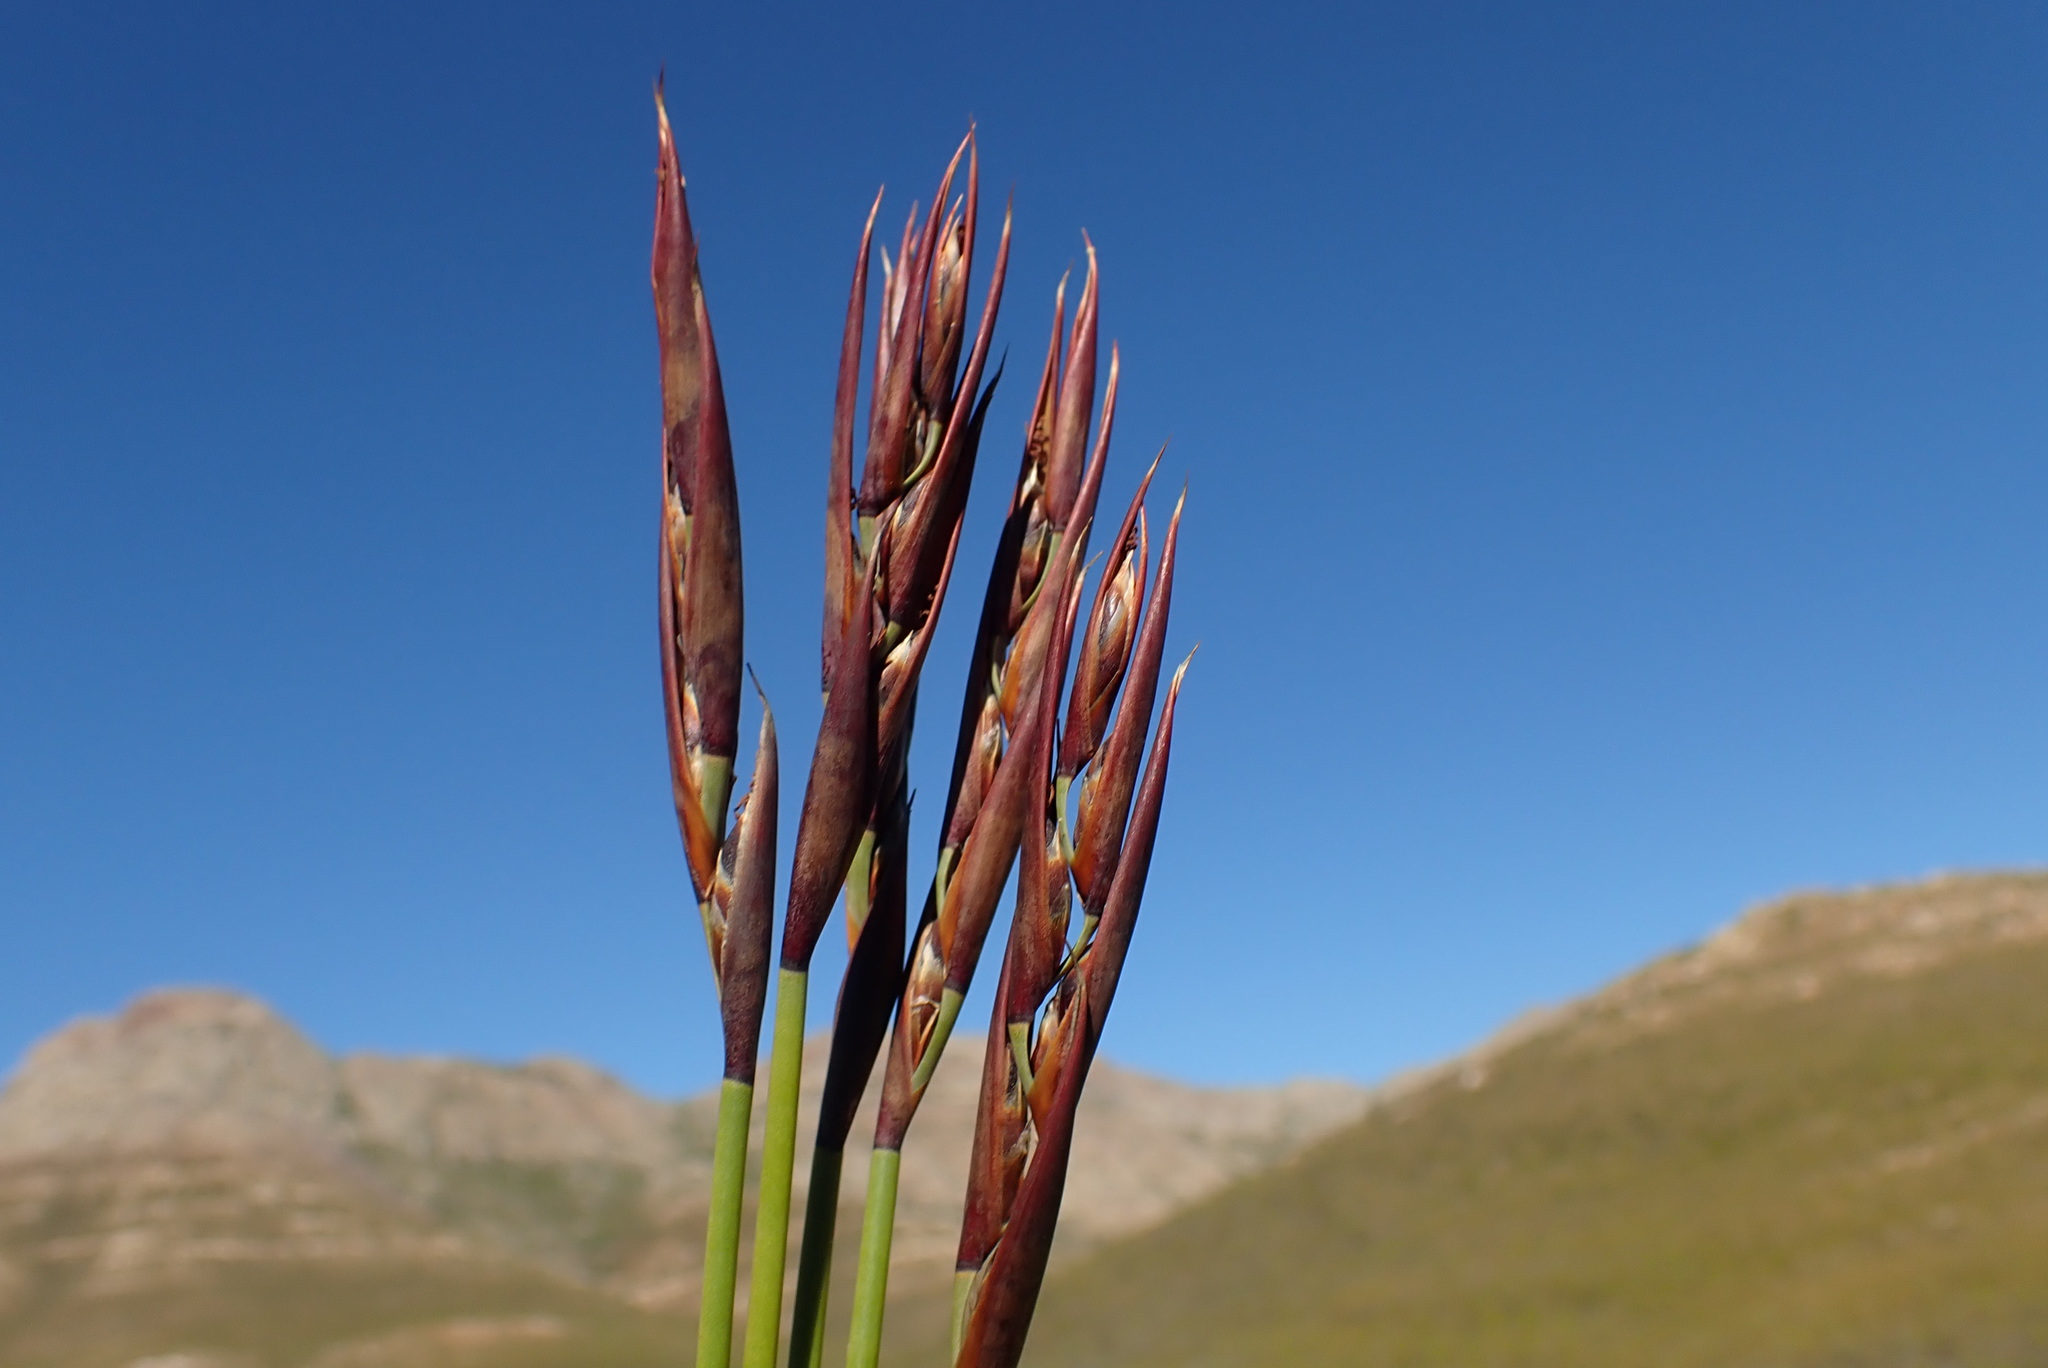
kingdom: Plantae
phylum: Tracheophyta
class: Liliopsida
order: Poales
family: Restionaceae
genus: Cannomois
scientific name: Cannomois scirpoides
